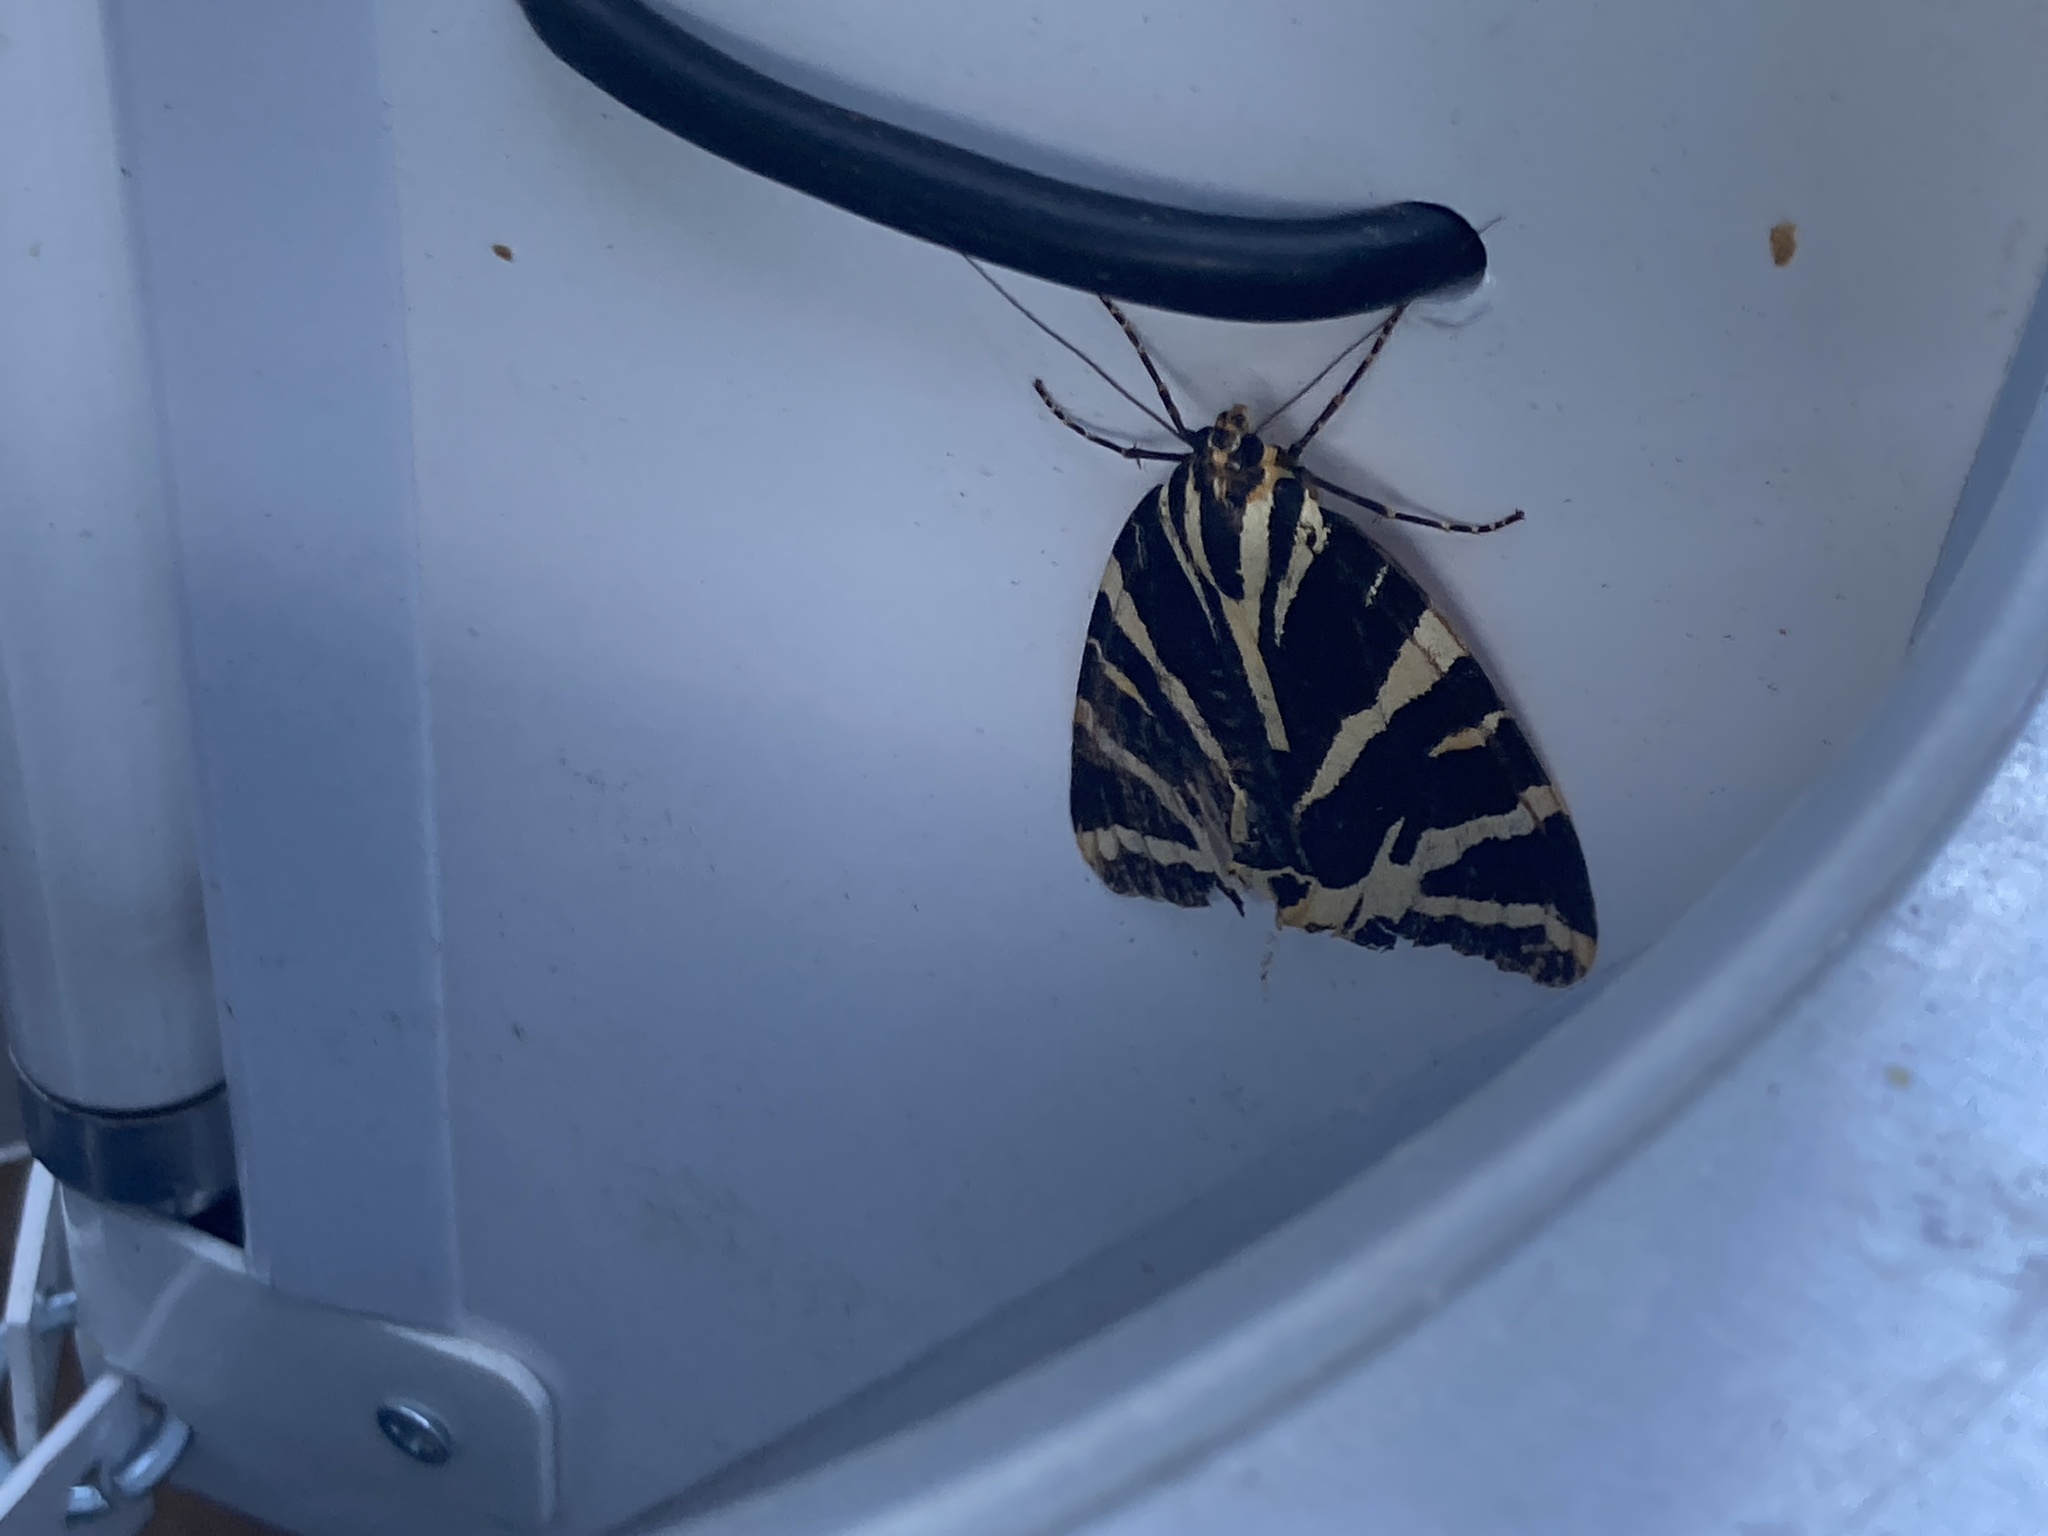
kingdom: Animalia
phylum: Arthropoda
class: Insecta
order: Lepidoptera
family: Erebidae
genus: Euplagia
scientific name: Euplagia quadripunctaria
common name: Jersey tiger
